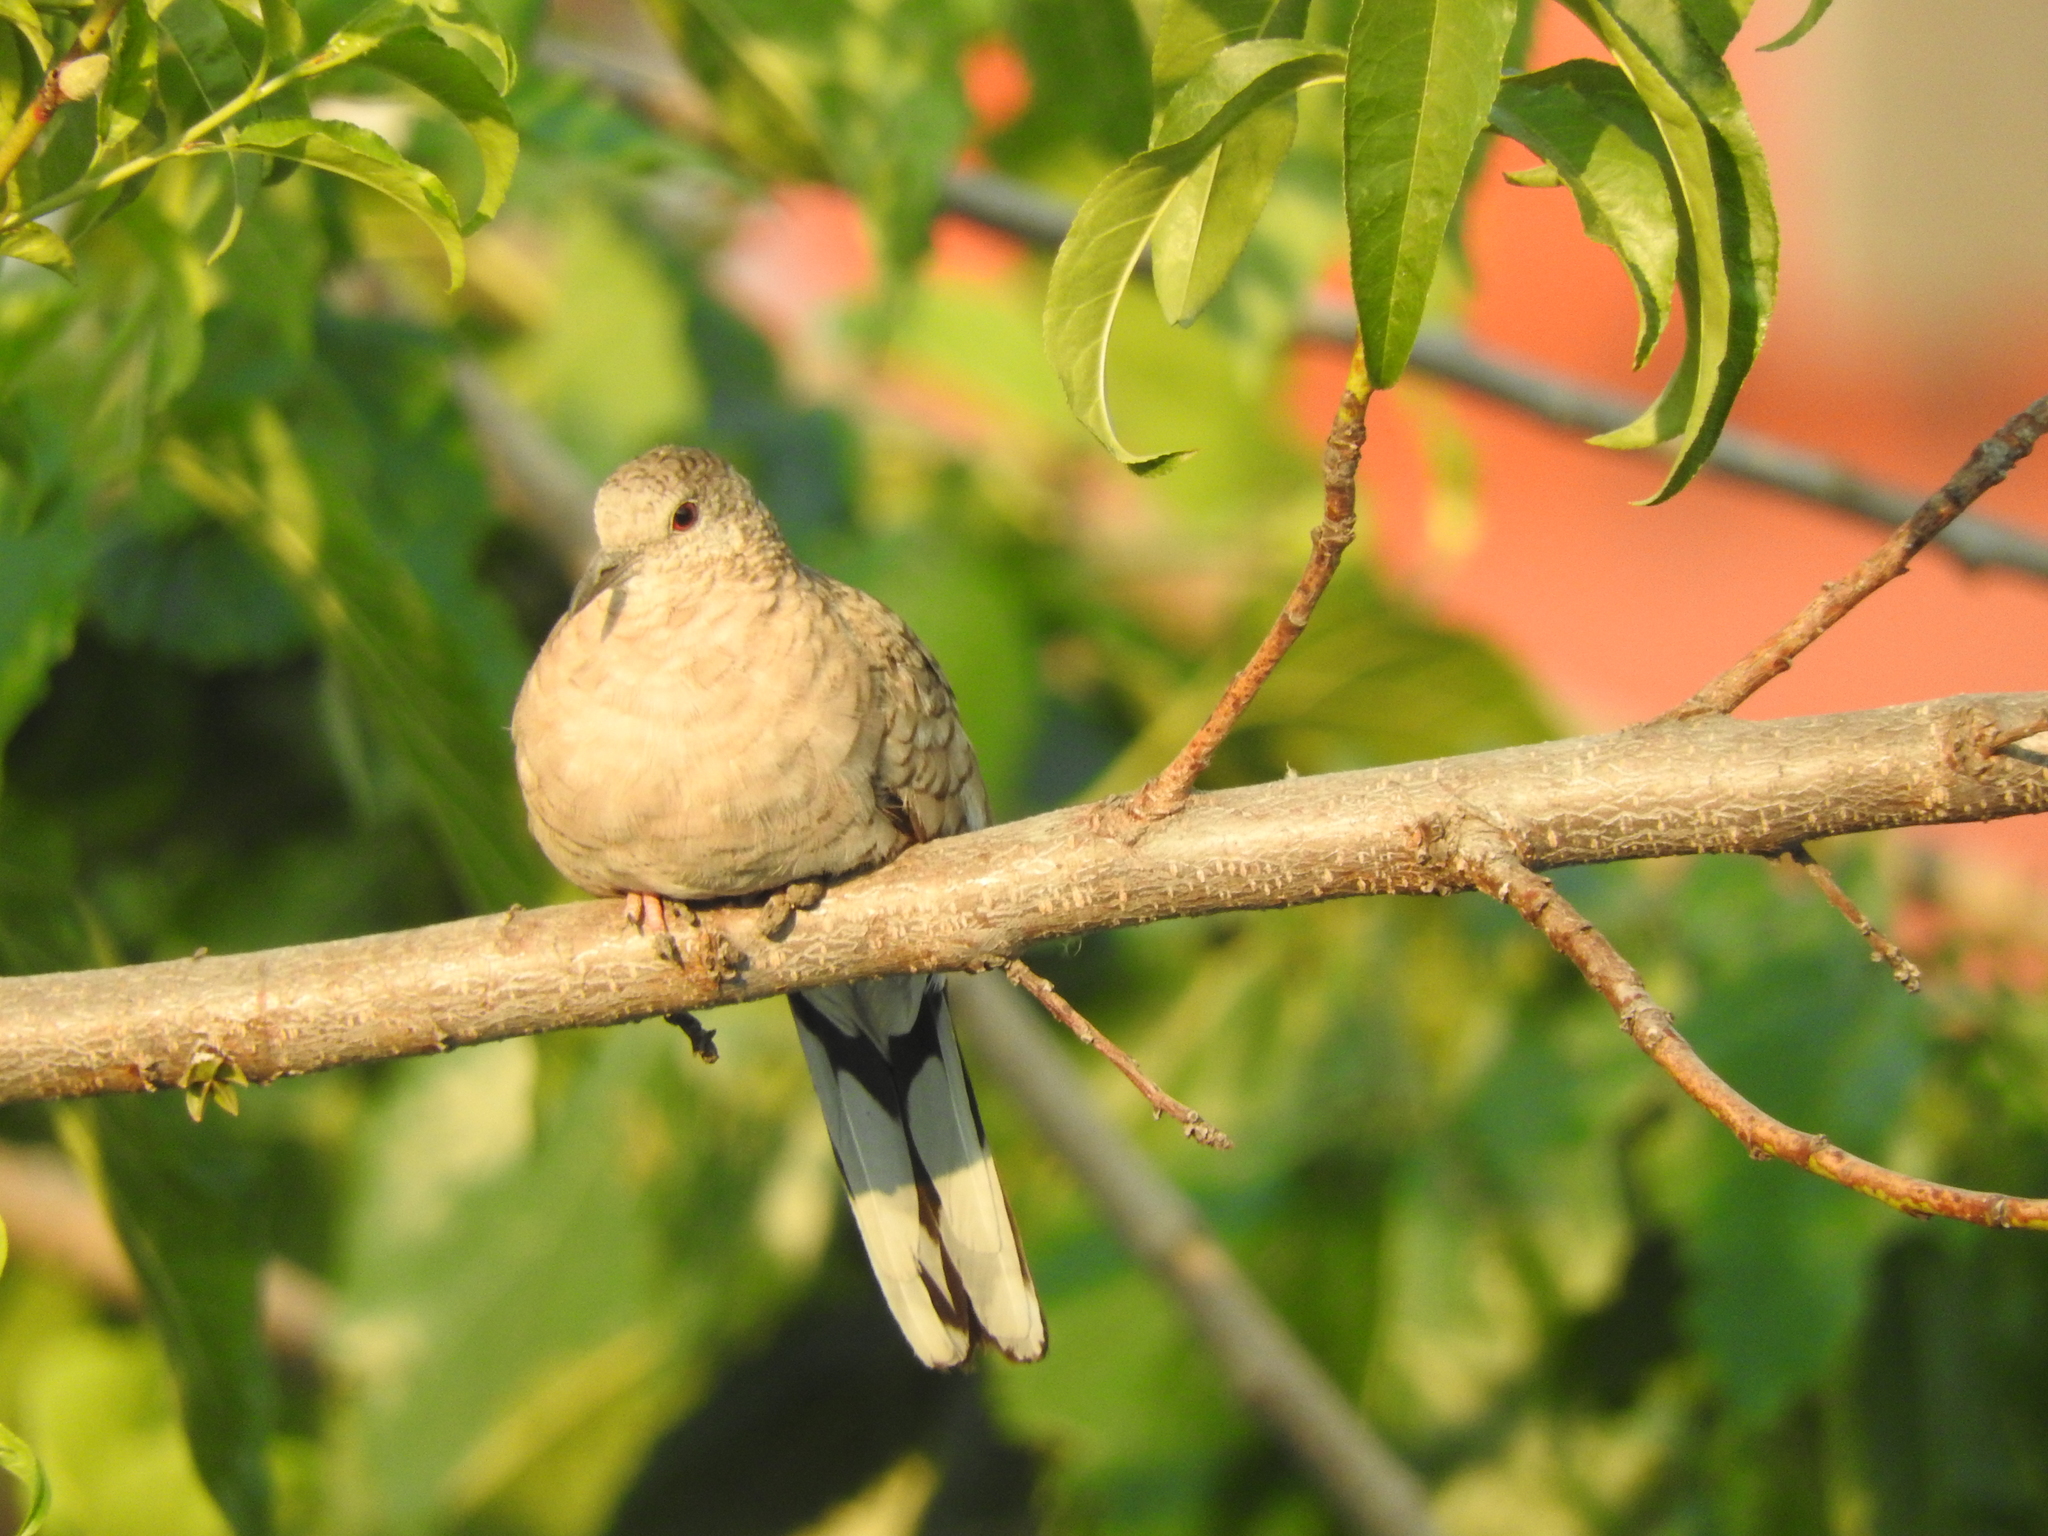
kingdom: Animalia
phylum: Chordata
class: Aves
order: Columbiformes
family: Columbidae
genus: Columbina
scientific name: Columbina inca
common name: Inca dove
